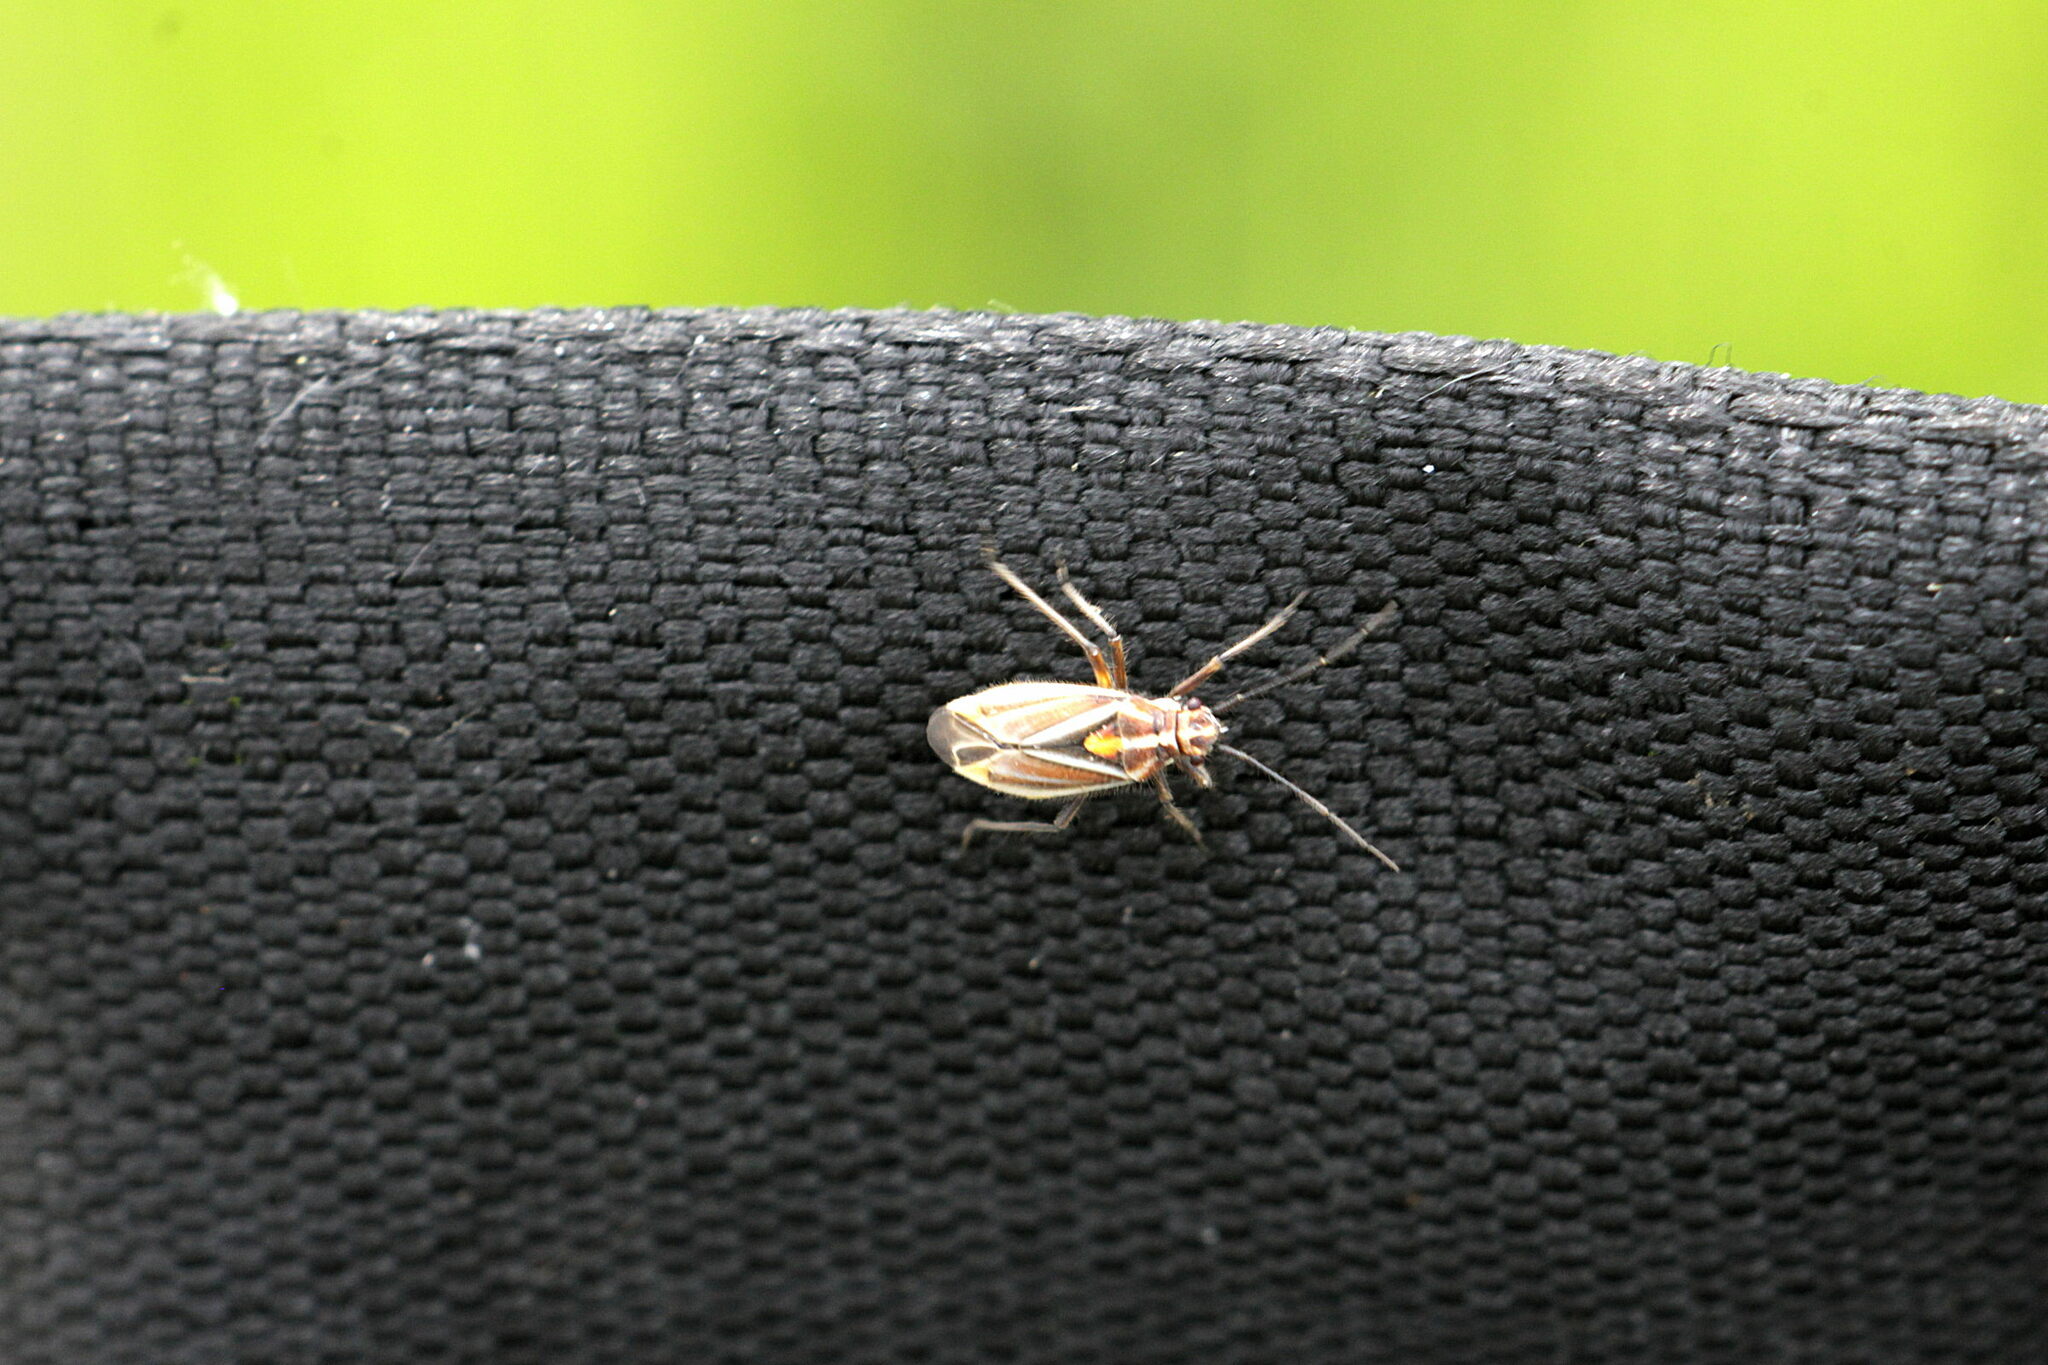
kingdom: Animalia
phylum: Arthropoda
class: Insecta
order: Hemiptera
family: Miridae
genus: Horistus
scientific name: Horistus orientalis
